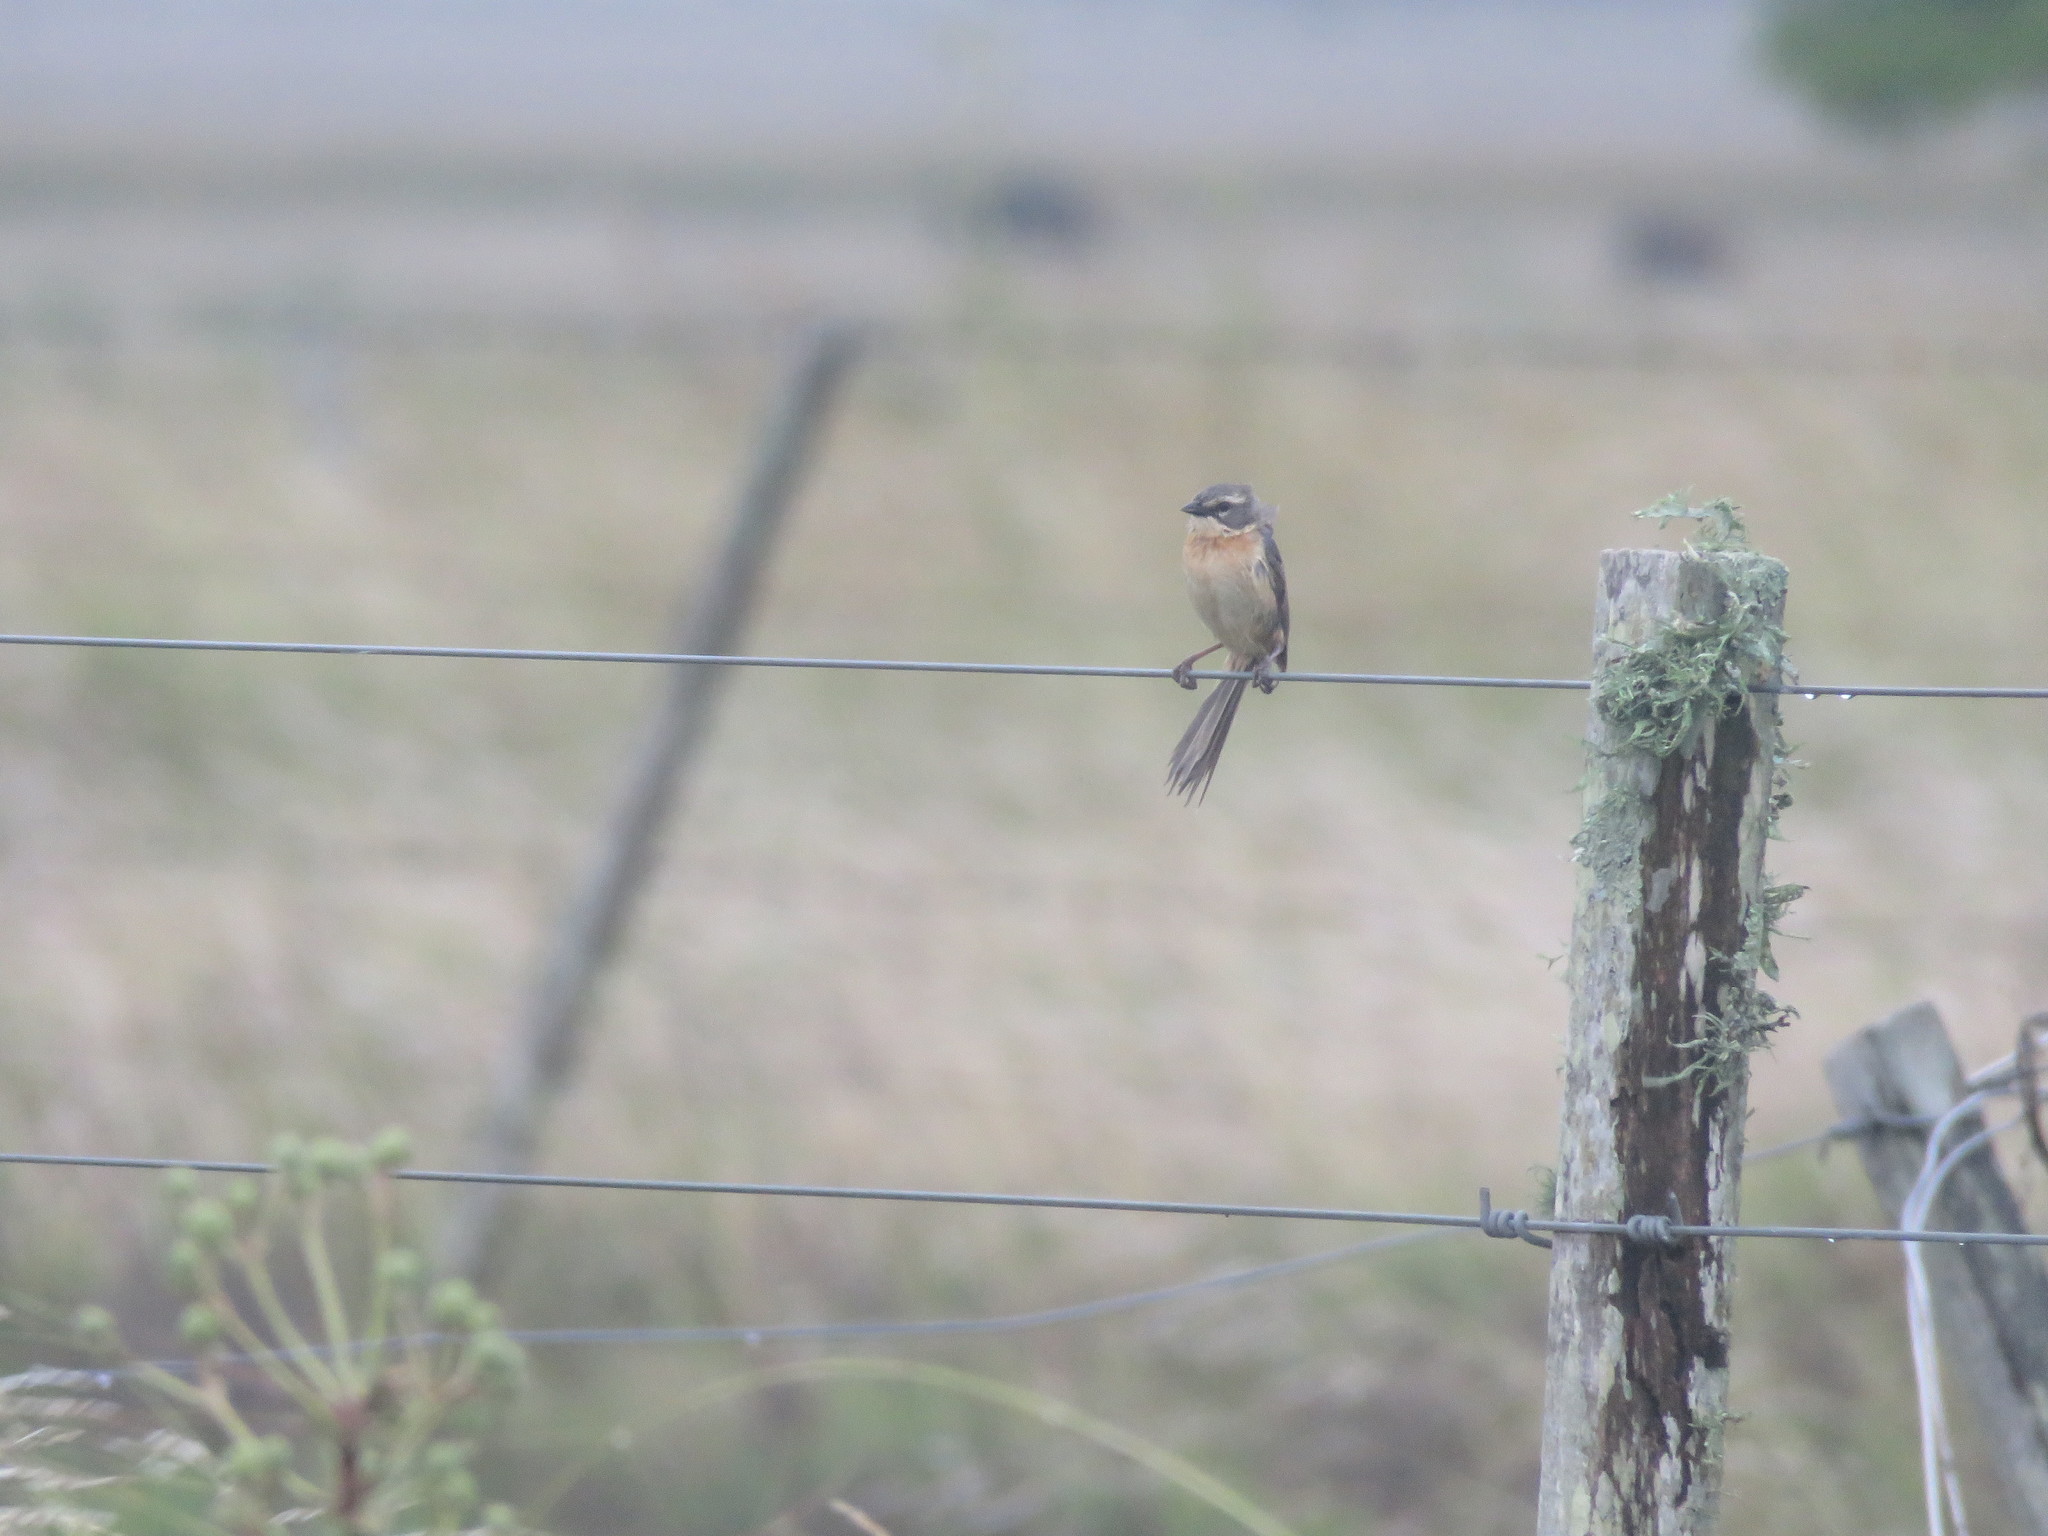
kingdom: Animalia
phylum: Chordata
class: Aves
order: Passeriformes
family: Thraupidae
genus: Donacospiza
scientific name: Donacospiza albifrons
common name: Long-tailed reed finch
